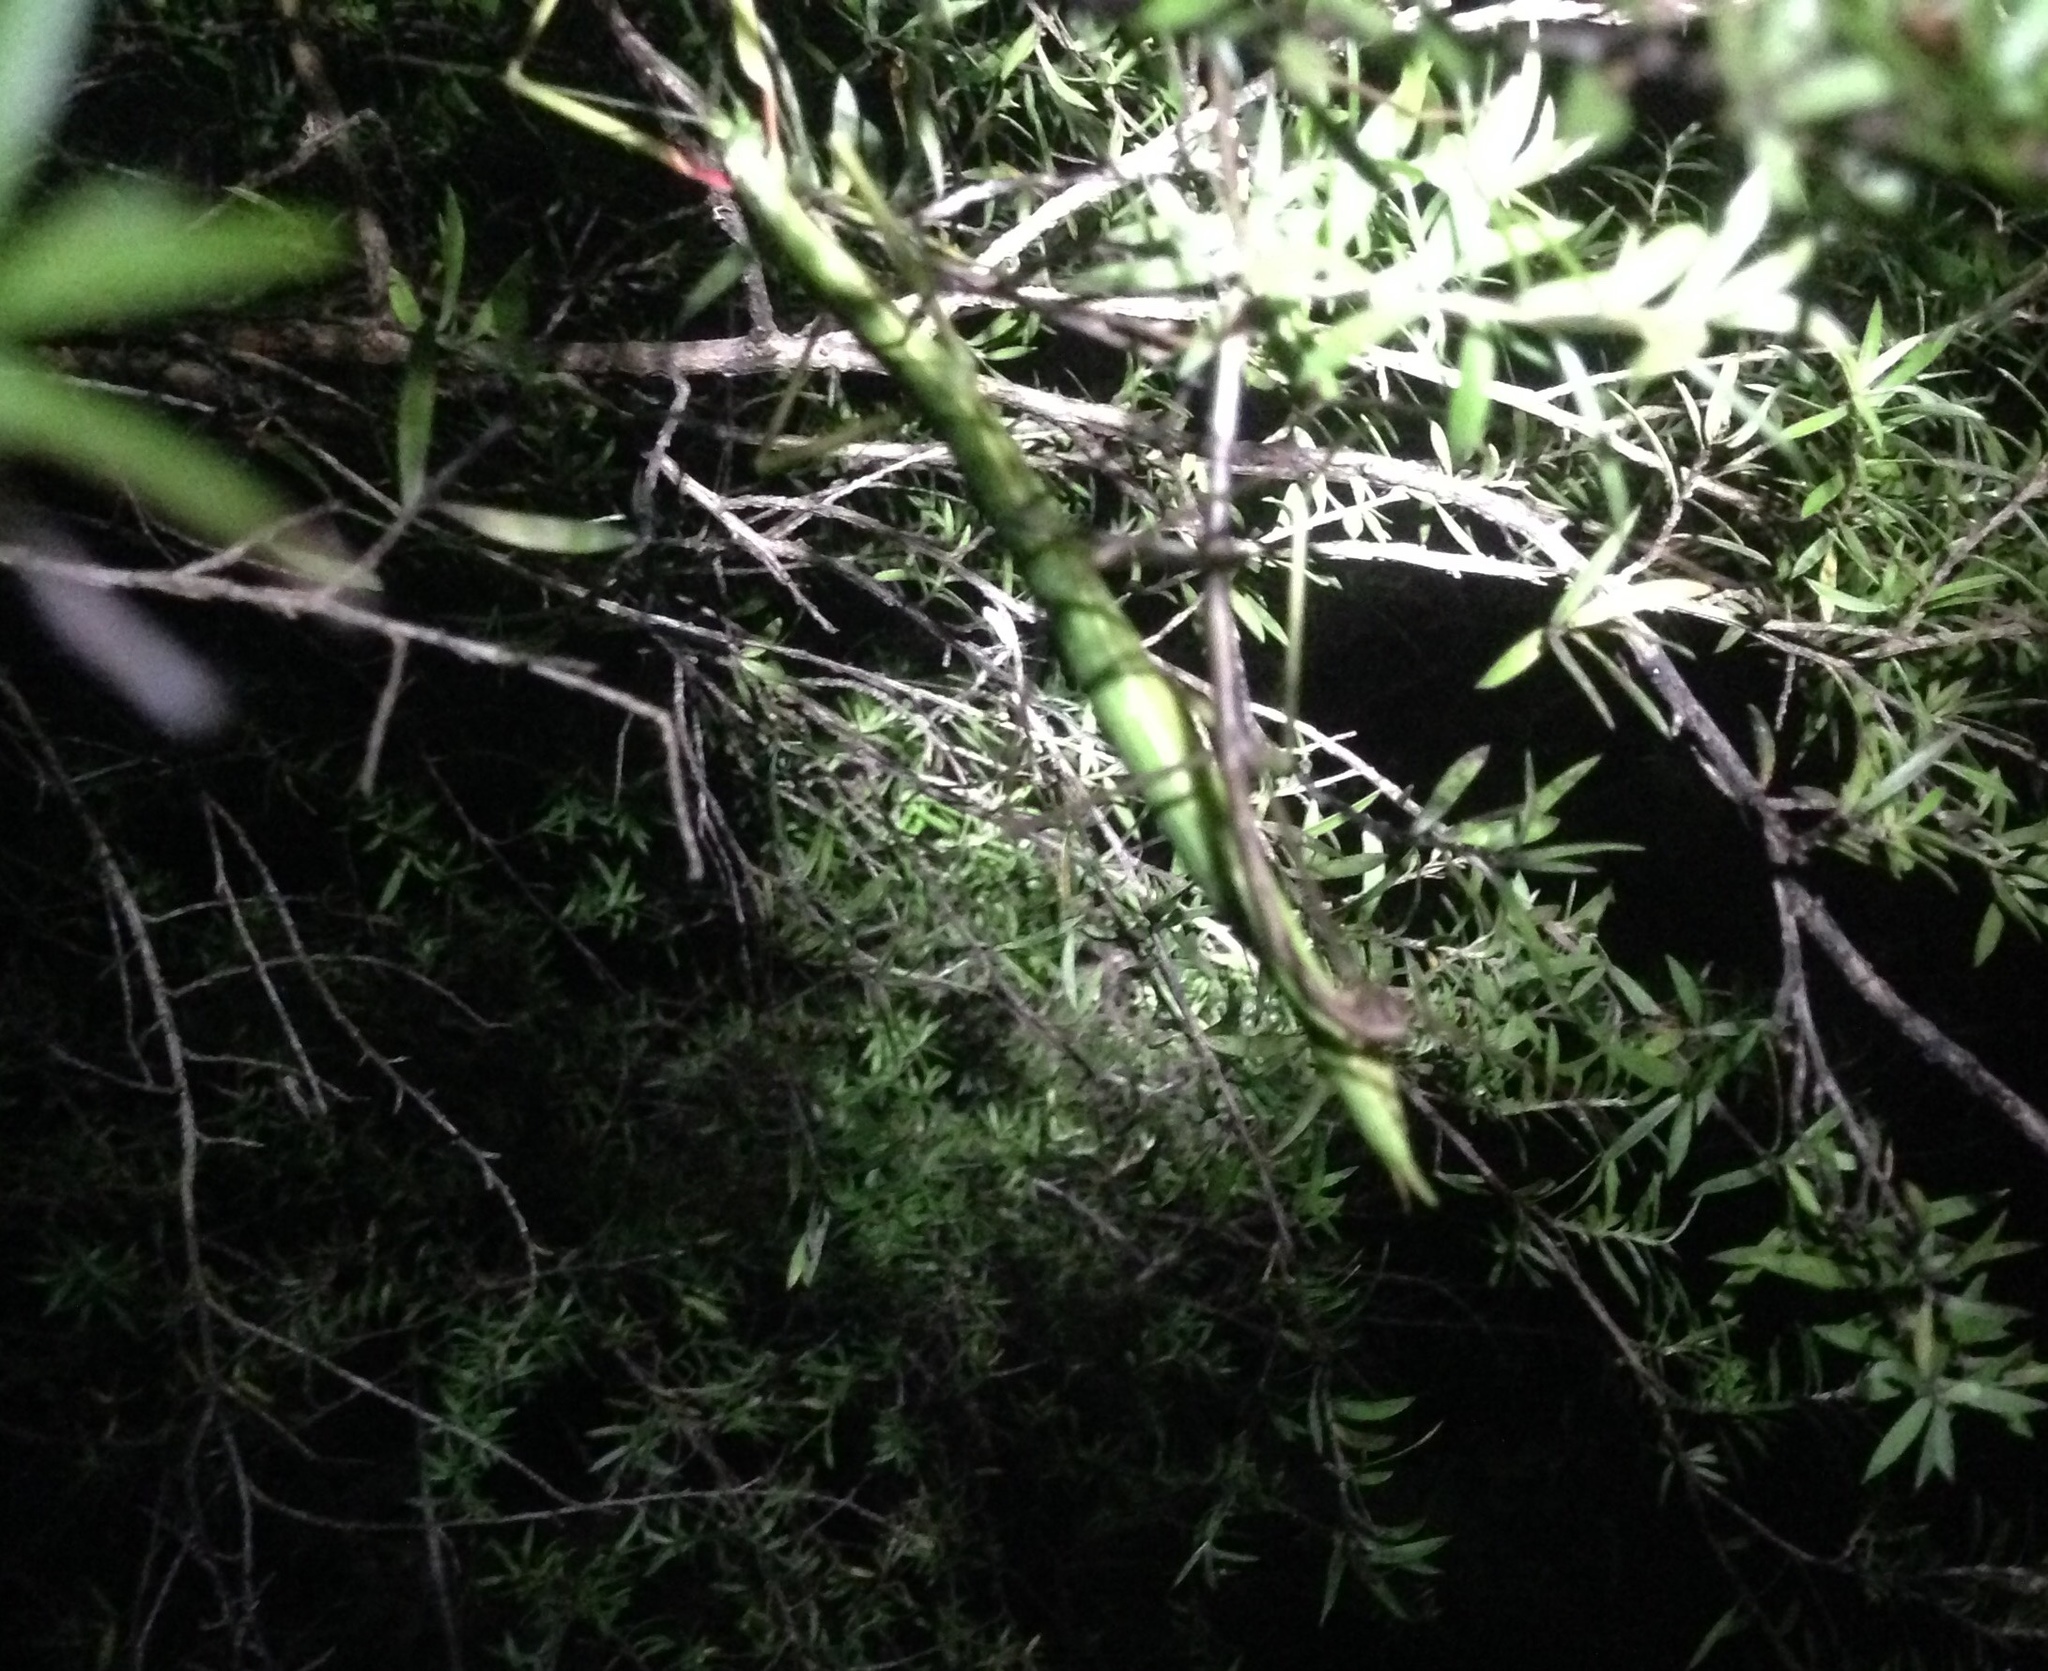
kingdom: Animalia
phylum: Arthropoda
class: Insecta
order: Phasmida
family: Phasmatidae
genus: Clitarchus
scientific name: Clitarchus hookeri
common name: Smooth stick insect
